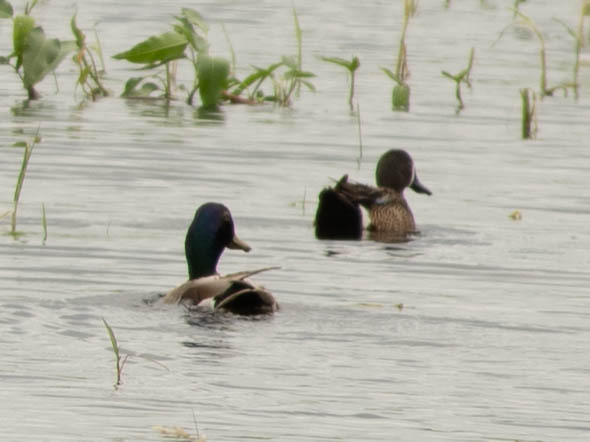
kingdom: Animalia
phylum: Chordata
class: Aves
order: Anseriformes
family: Anatidae
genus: Anas
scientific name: Anas platyrhynchos
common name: Mallard
